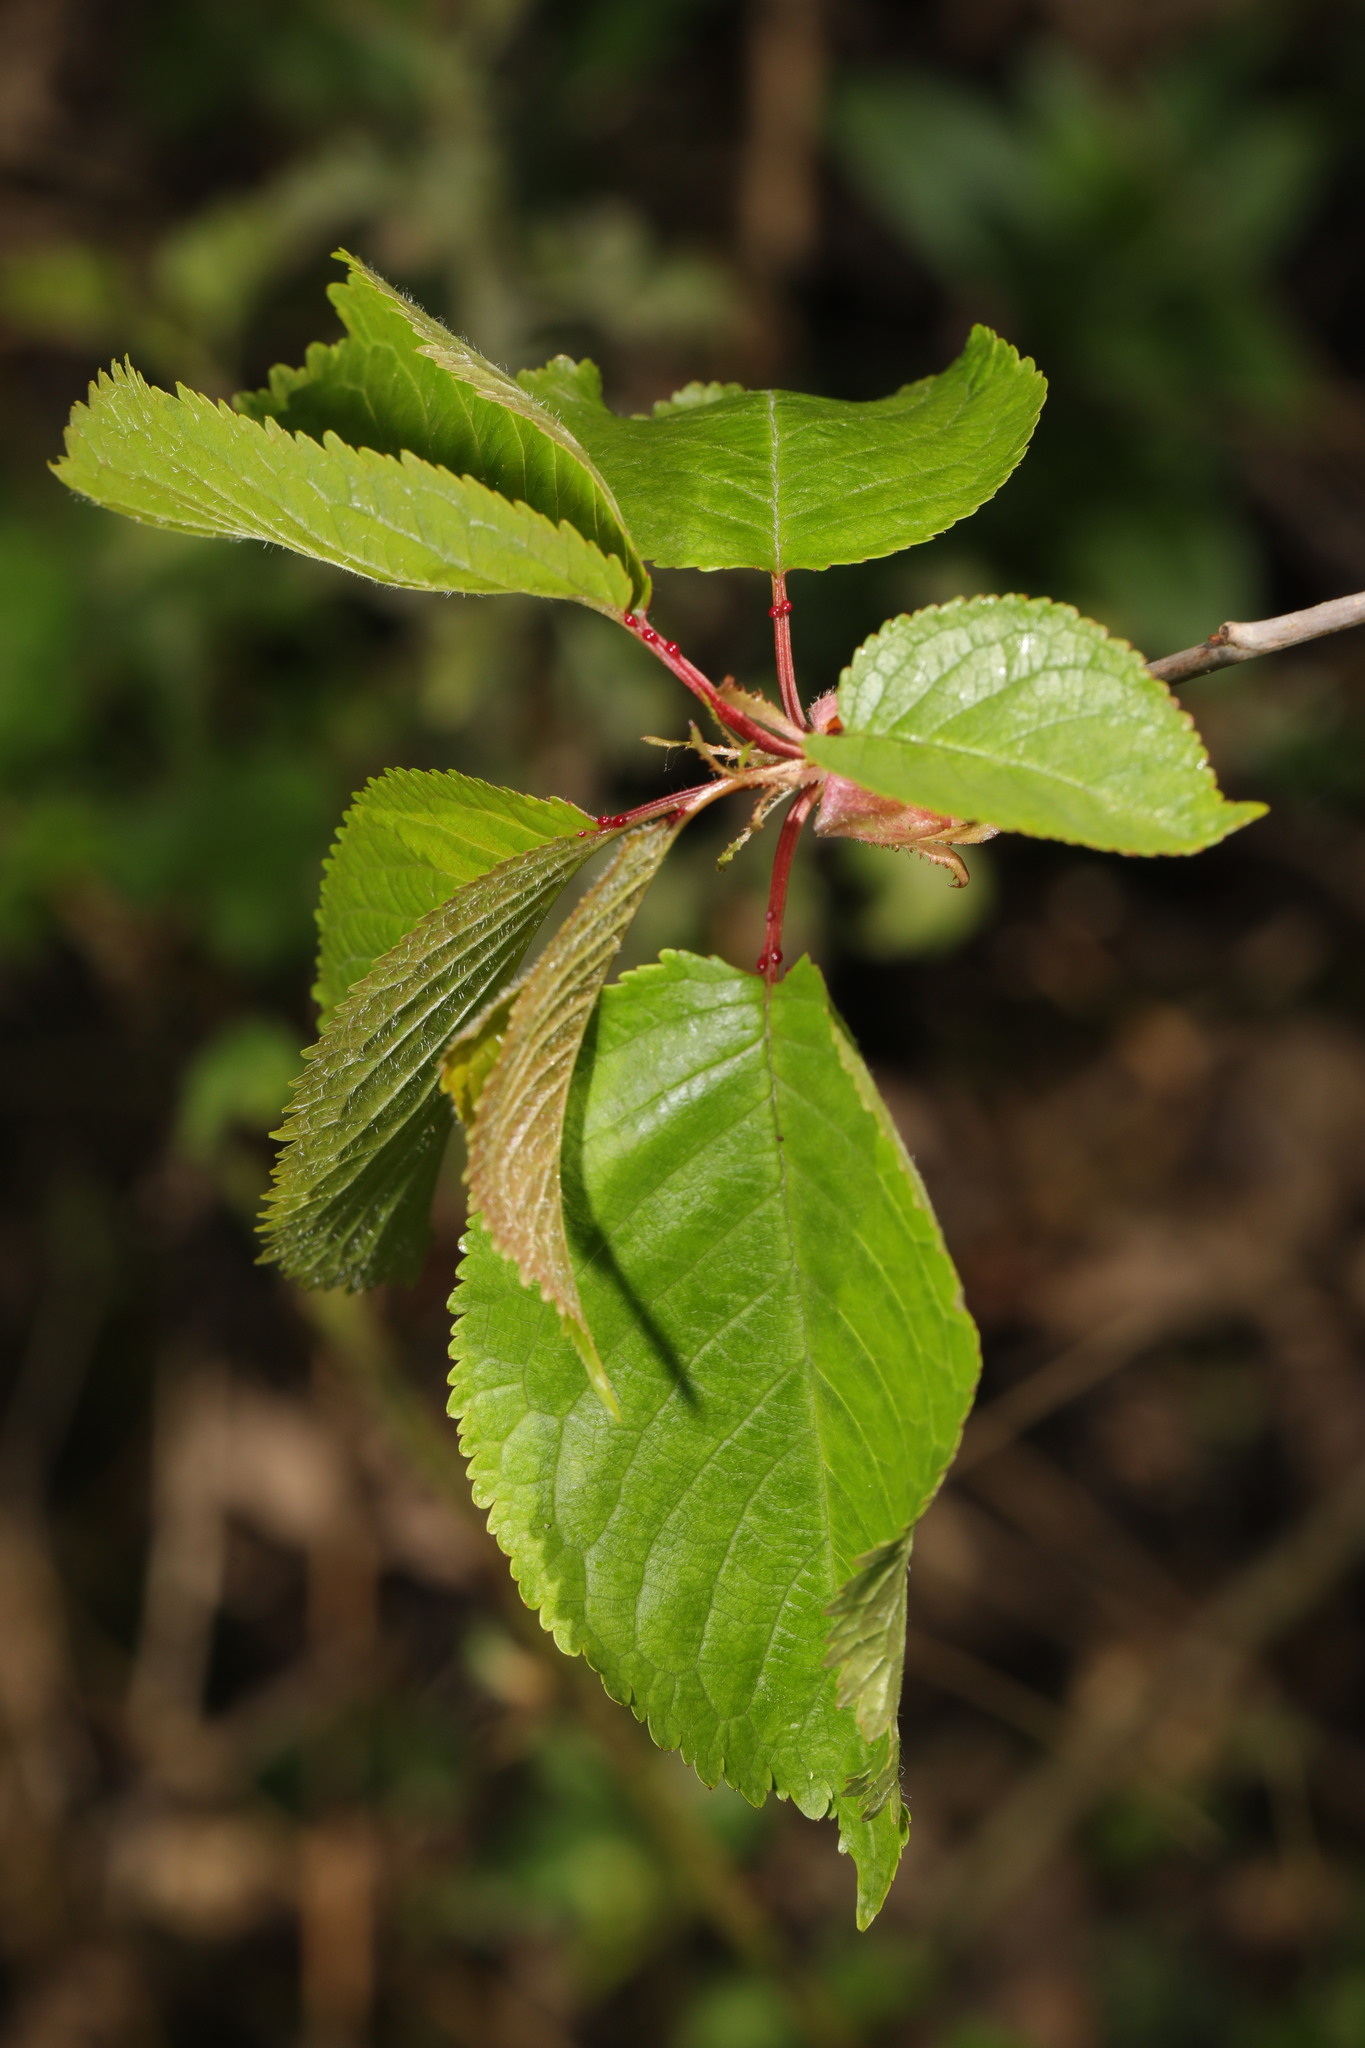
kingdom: Plantae
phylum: Tracheophyta
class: Magnoliopsida
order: Rosales
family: Rosaceae
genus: Prunus
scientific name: Prunus avium
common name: Sweet cherry
